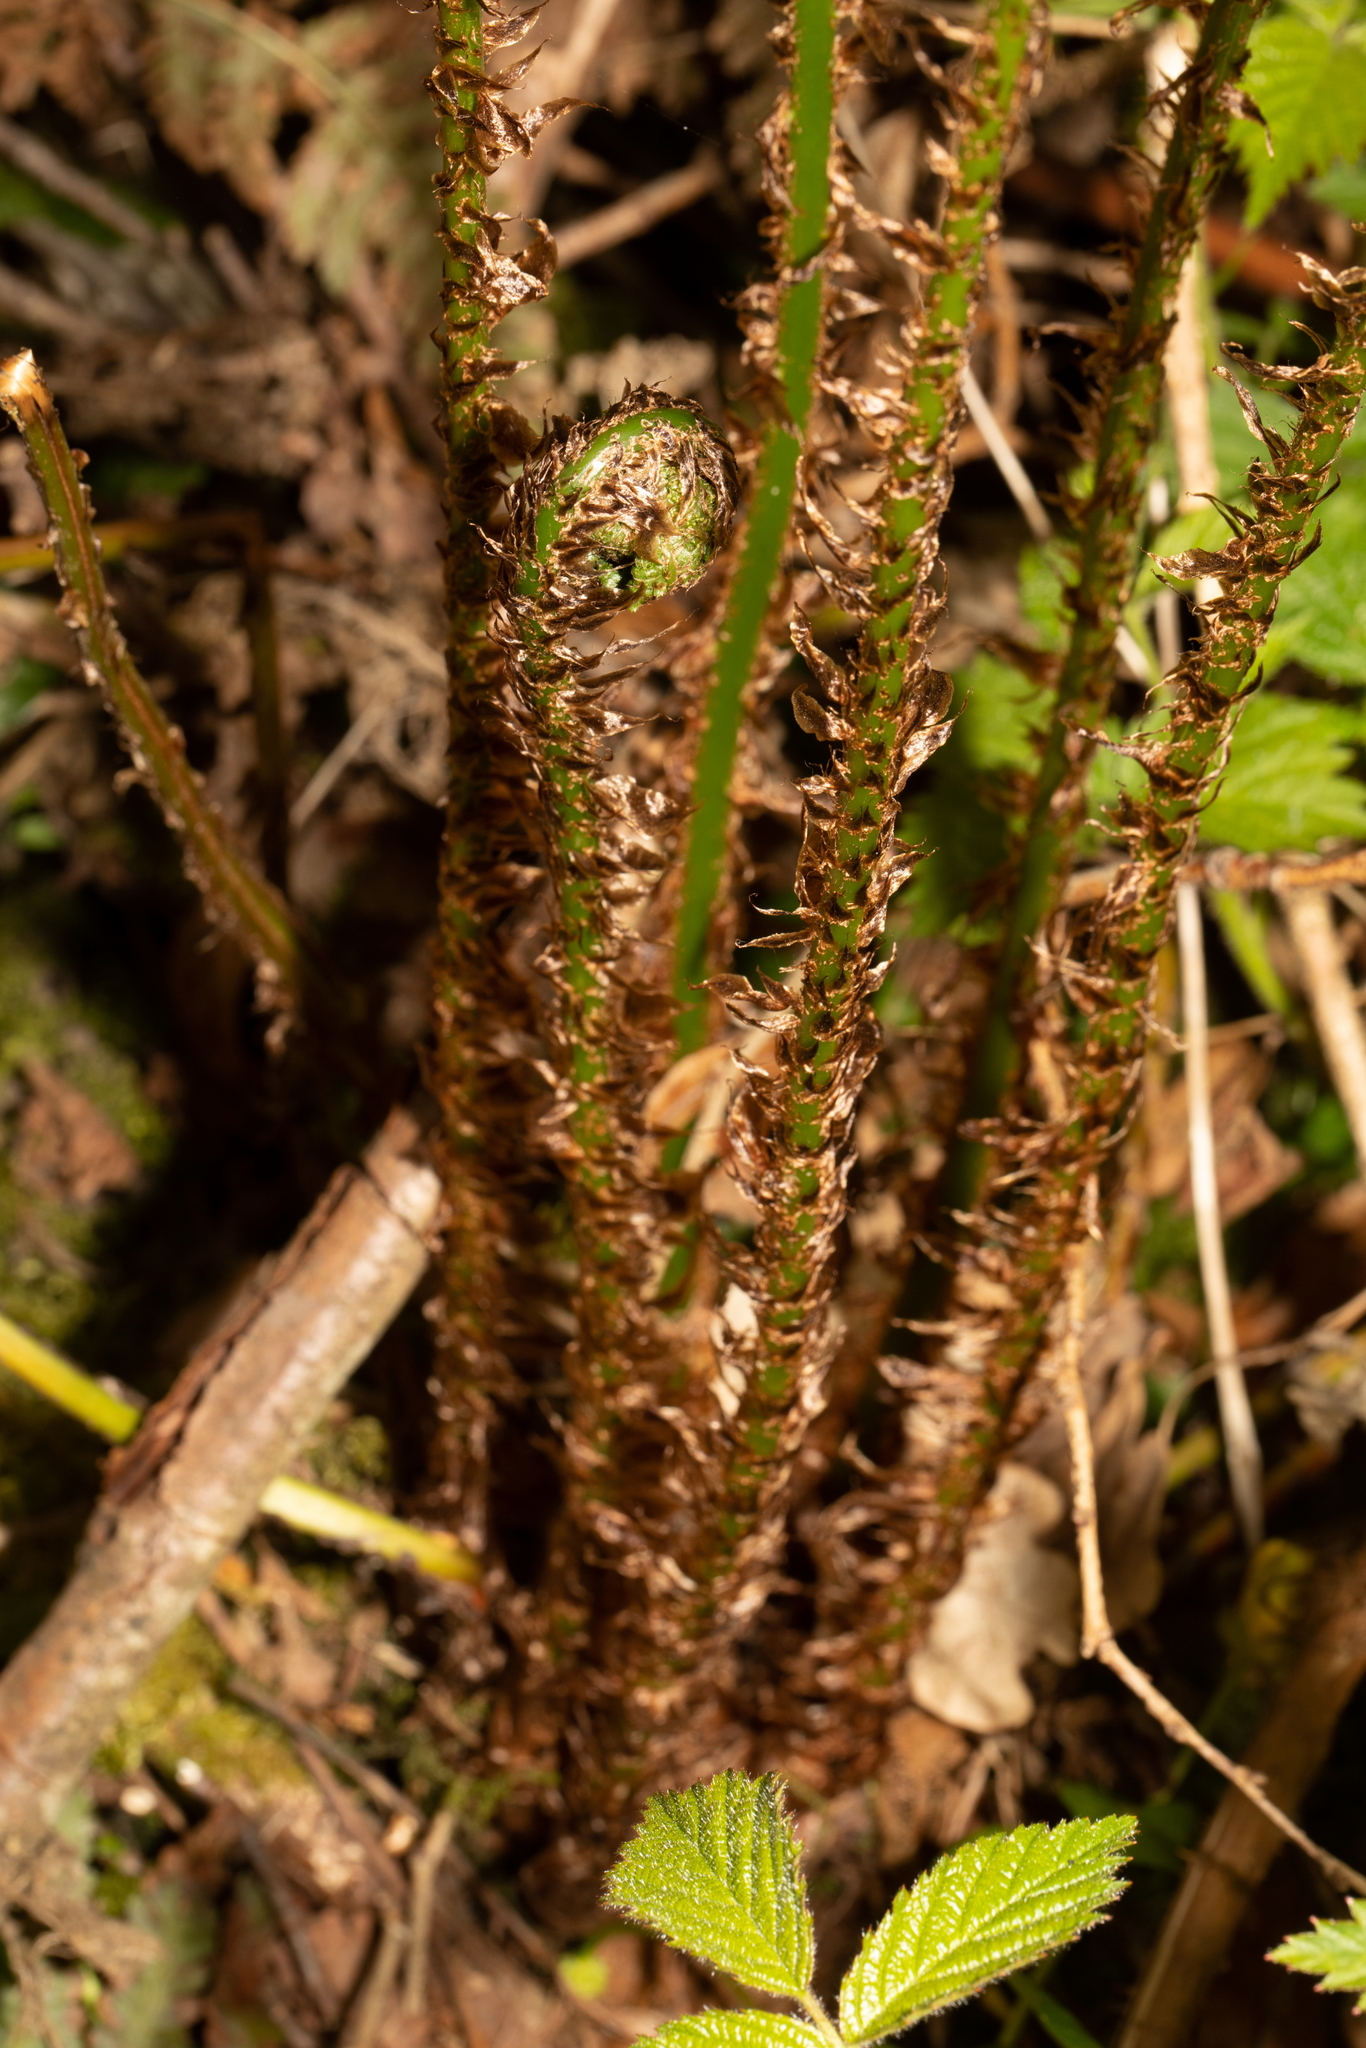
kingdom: Plantae
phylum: Tracheophyta
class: Polypodiopsida
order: Polypodiales
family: Dryopteridaceae
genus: Dryopteris
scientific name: Dryopteris dilatata
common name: Broad buckler-fern
